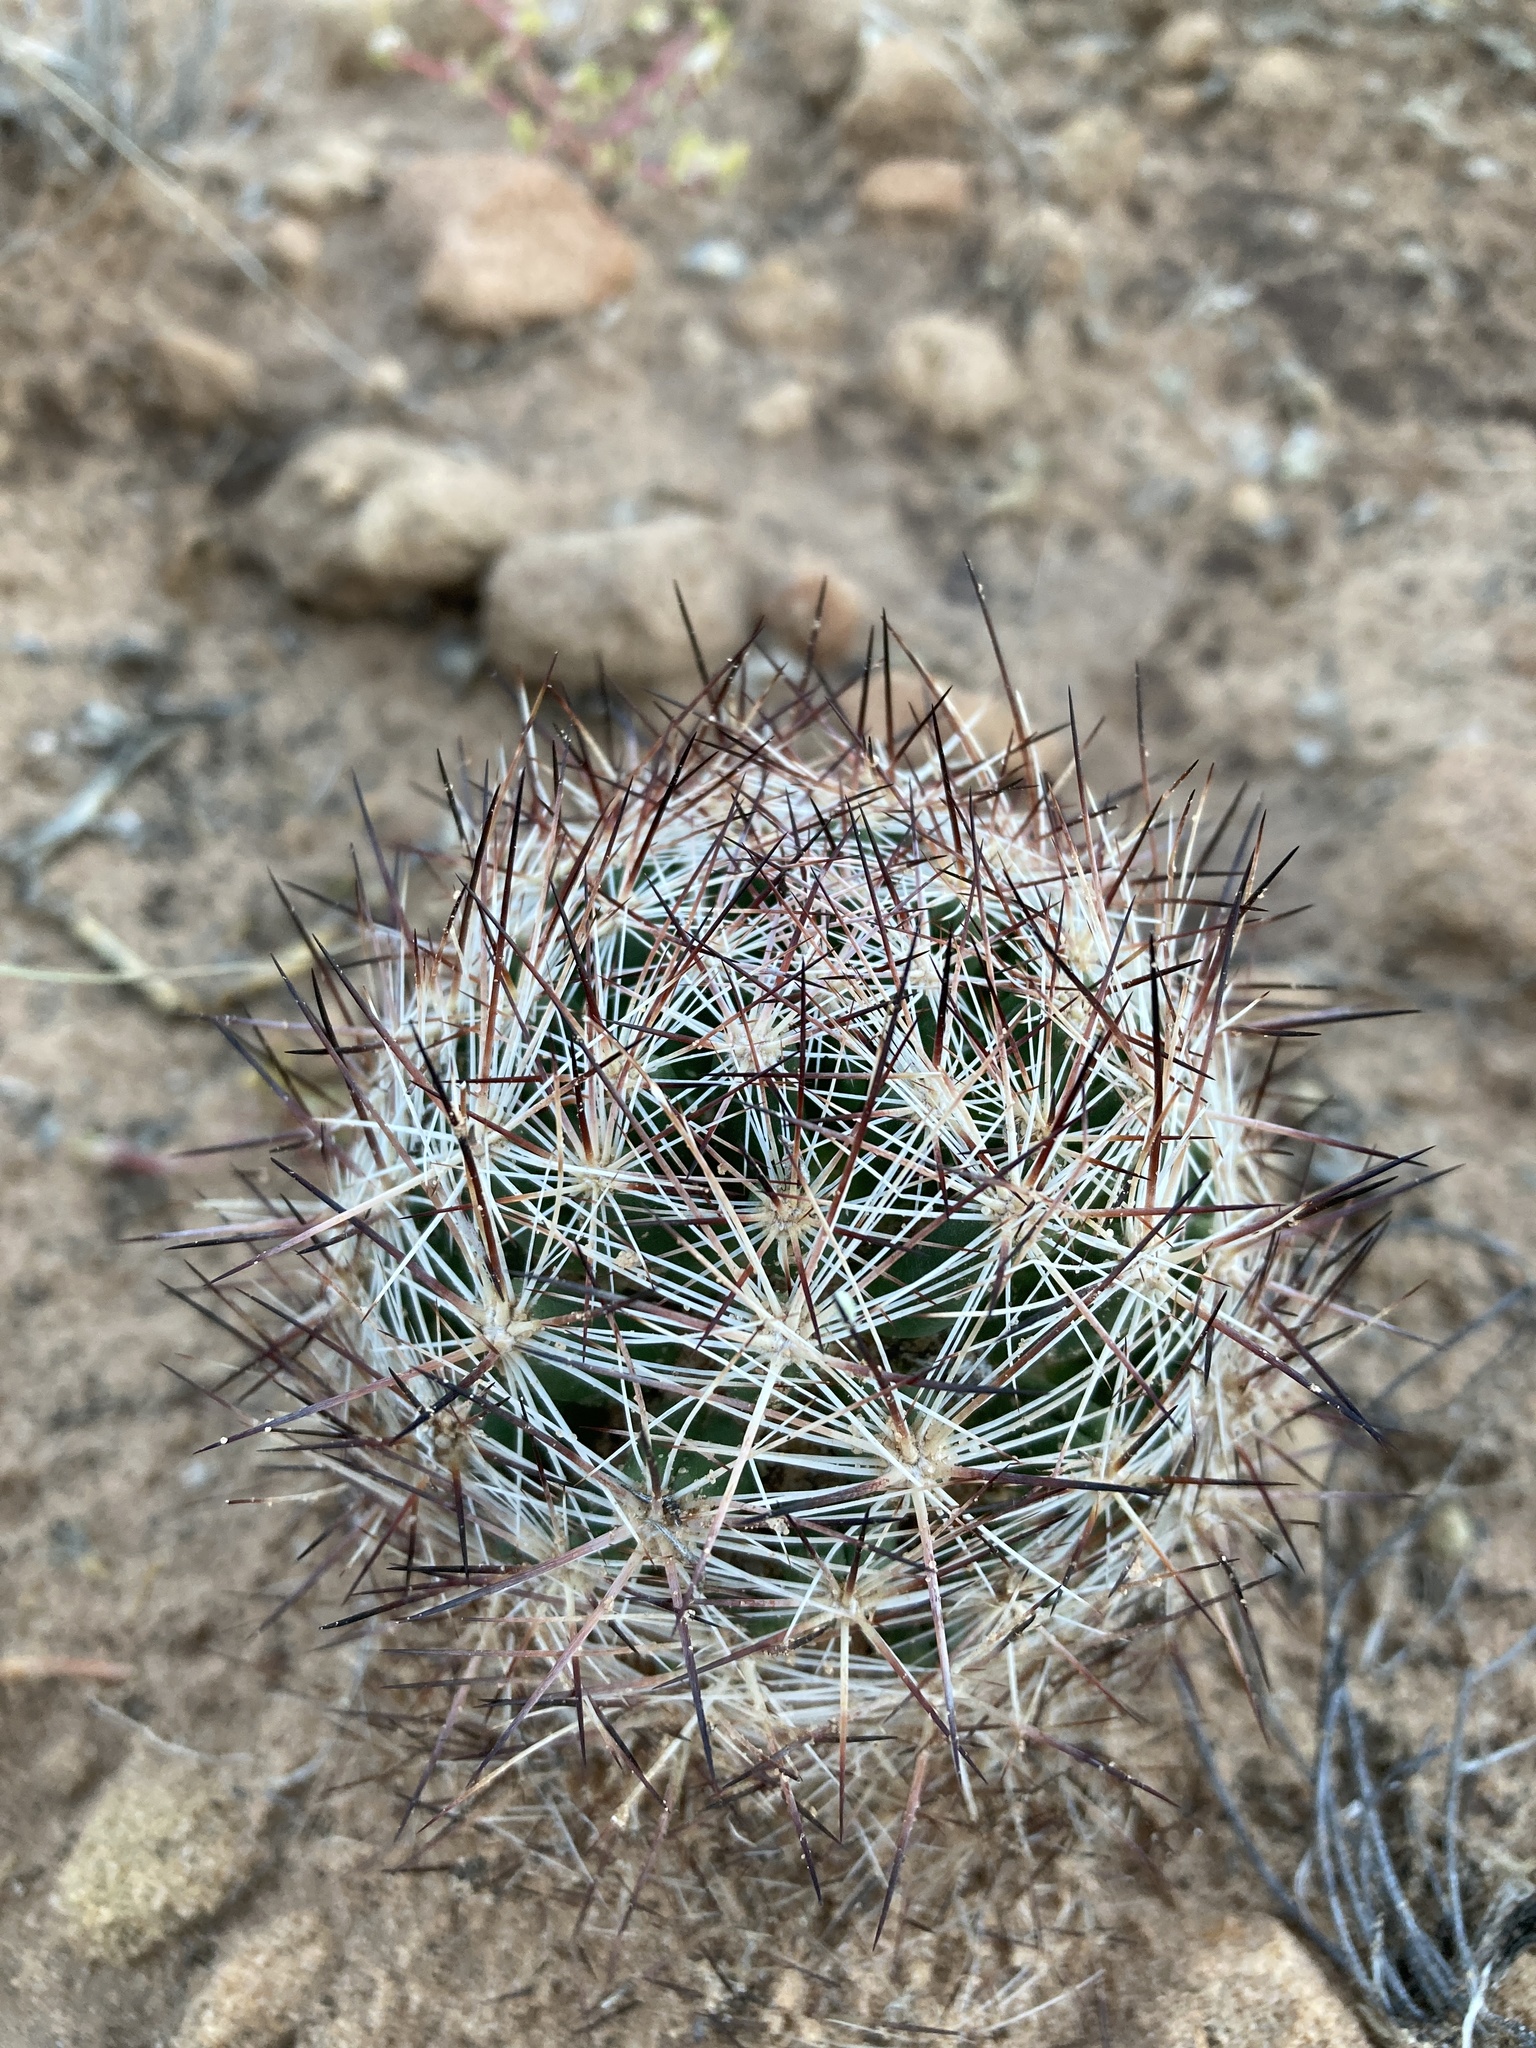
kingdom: Plantae
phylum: Tracheophyta
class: Magnoliopsida
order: Caryophyllales
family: Cactaceae
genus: Pelecyphora
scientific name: Pelecyphora vivipara
